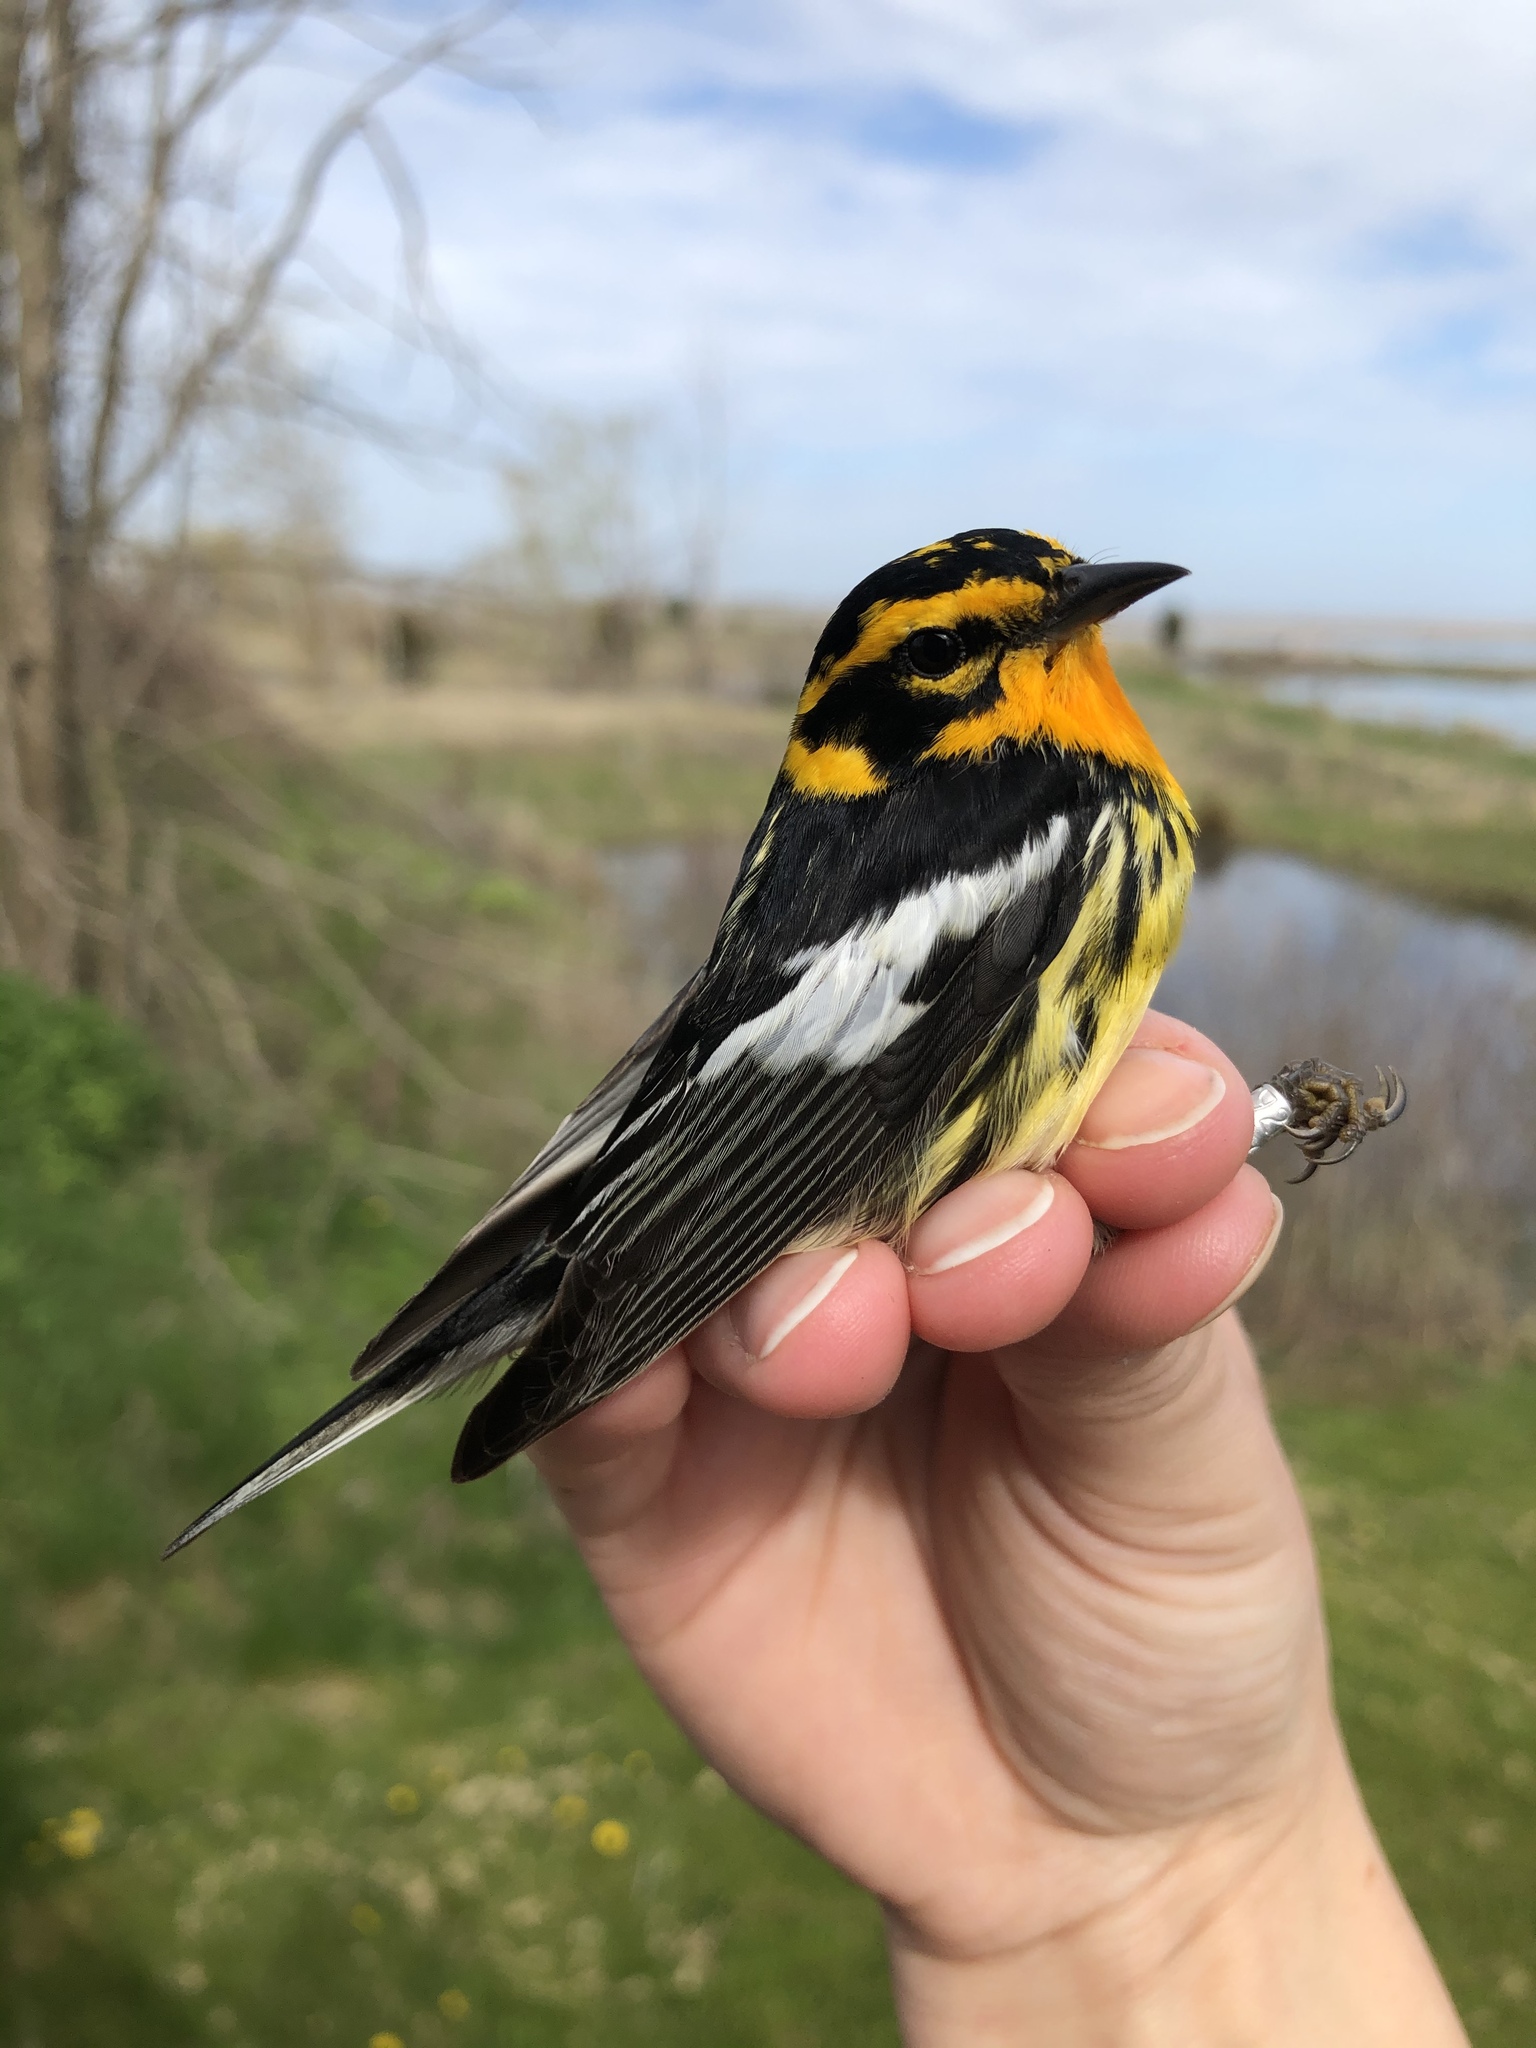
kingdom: Animalia
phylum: Chordata
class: Aves
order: Passeriformes
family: Parulidae
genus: Setophaga
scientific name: Setophaga fusca
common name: Blackburnian warbler
